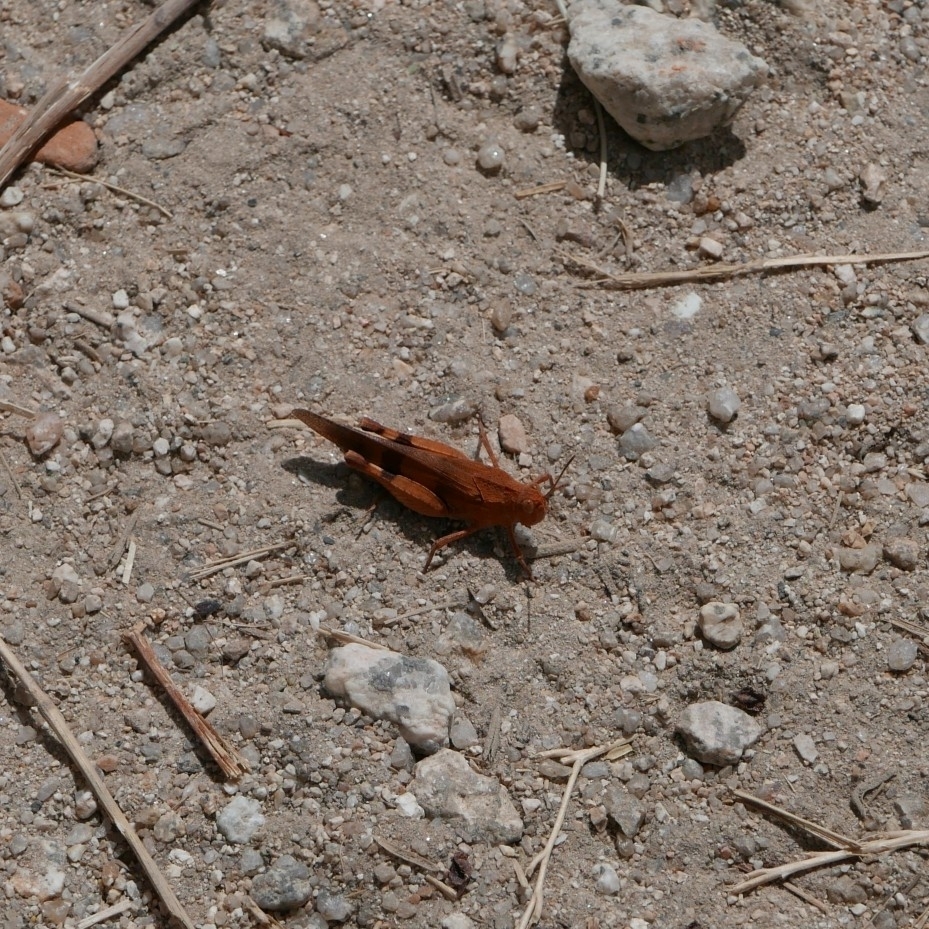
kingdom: Animalia
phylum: Arthropoda
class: Insecta
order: Orthoptera
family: Acrididae
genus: Oedipoda
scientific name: Oedipoda caerulescens
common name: Blue-winged grasshopper
